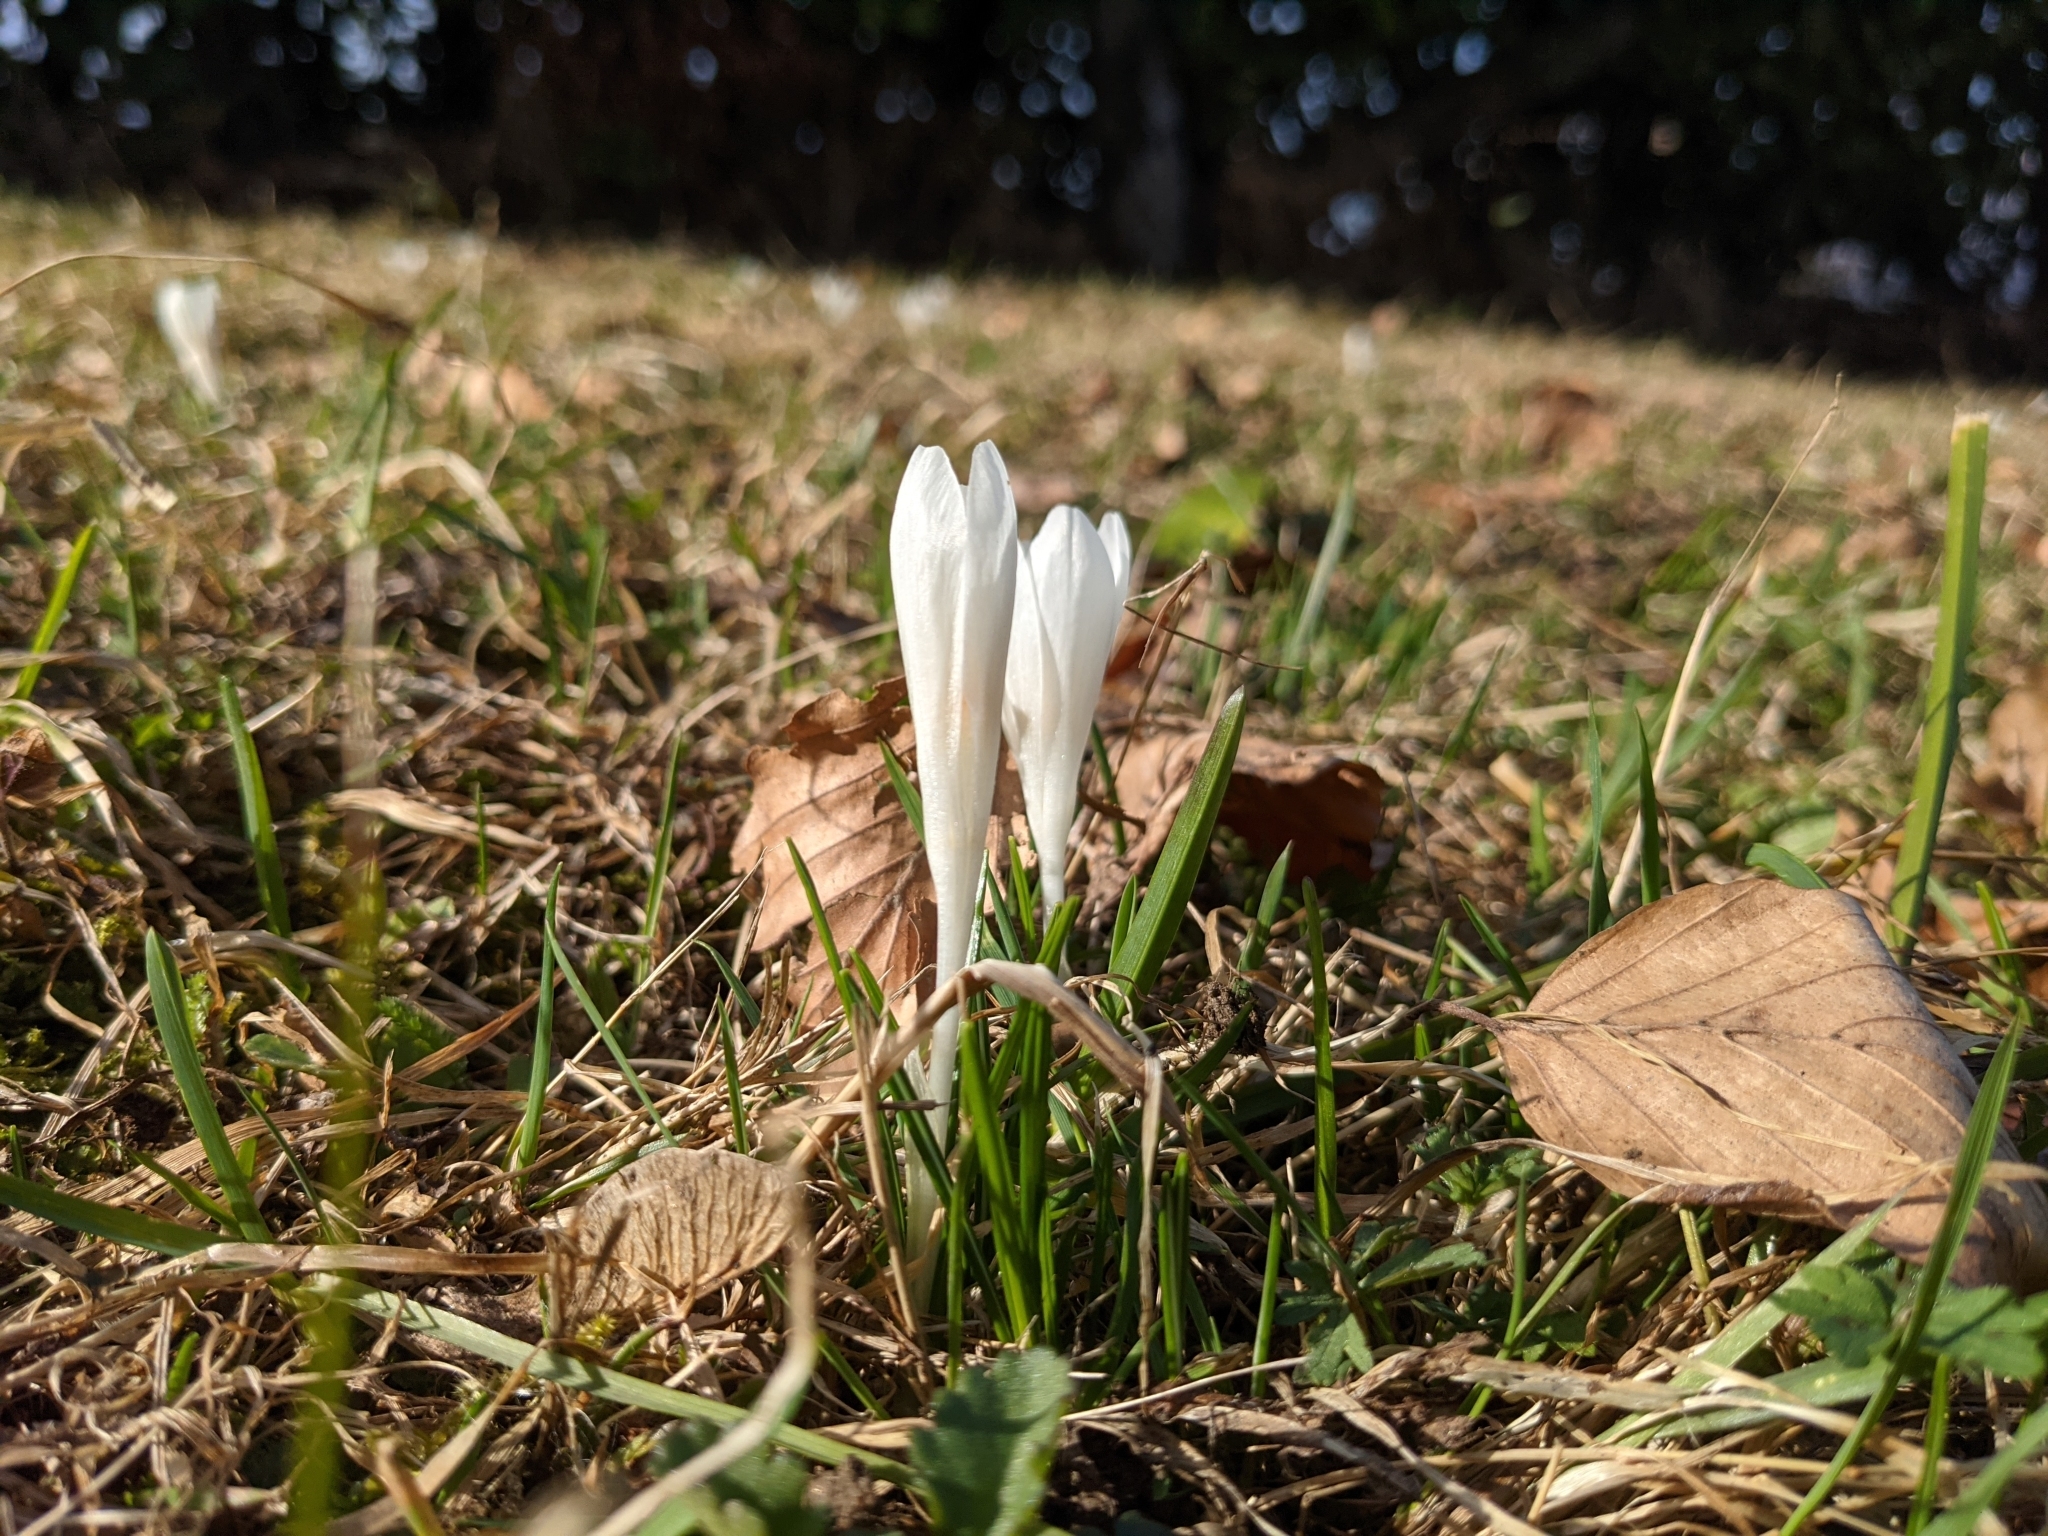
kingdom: Plantae
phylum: Tracheophyta
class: Liliopsida
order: Asparagales
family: Iridaceae
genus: Crocus
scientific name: Crocus vernus
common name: Spring crocus
